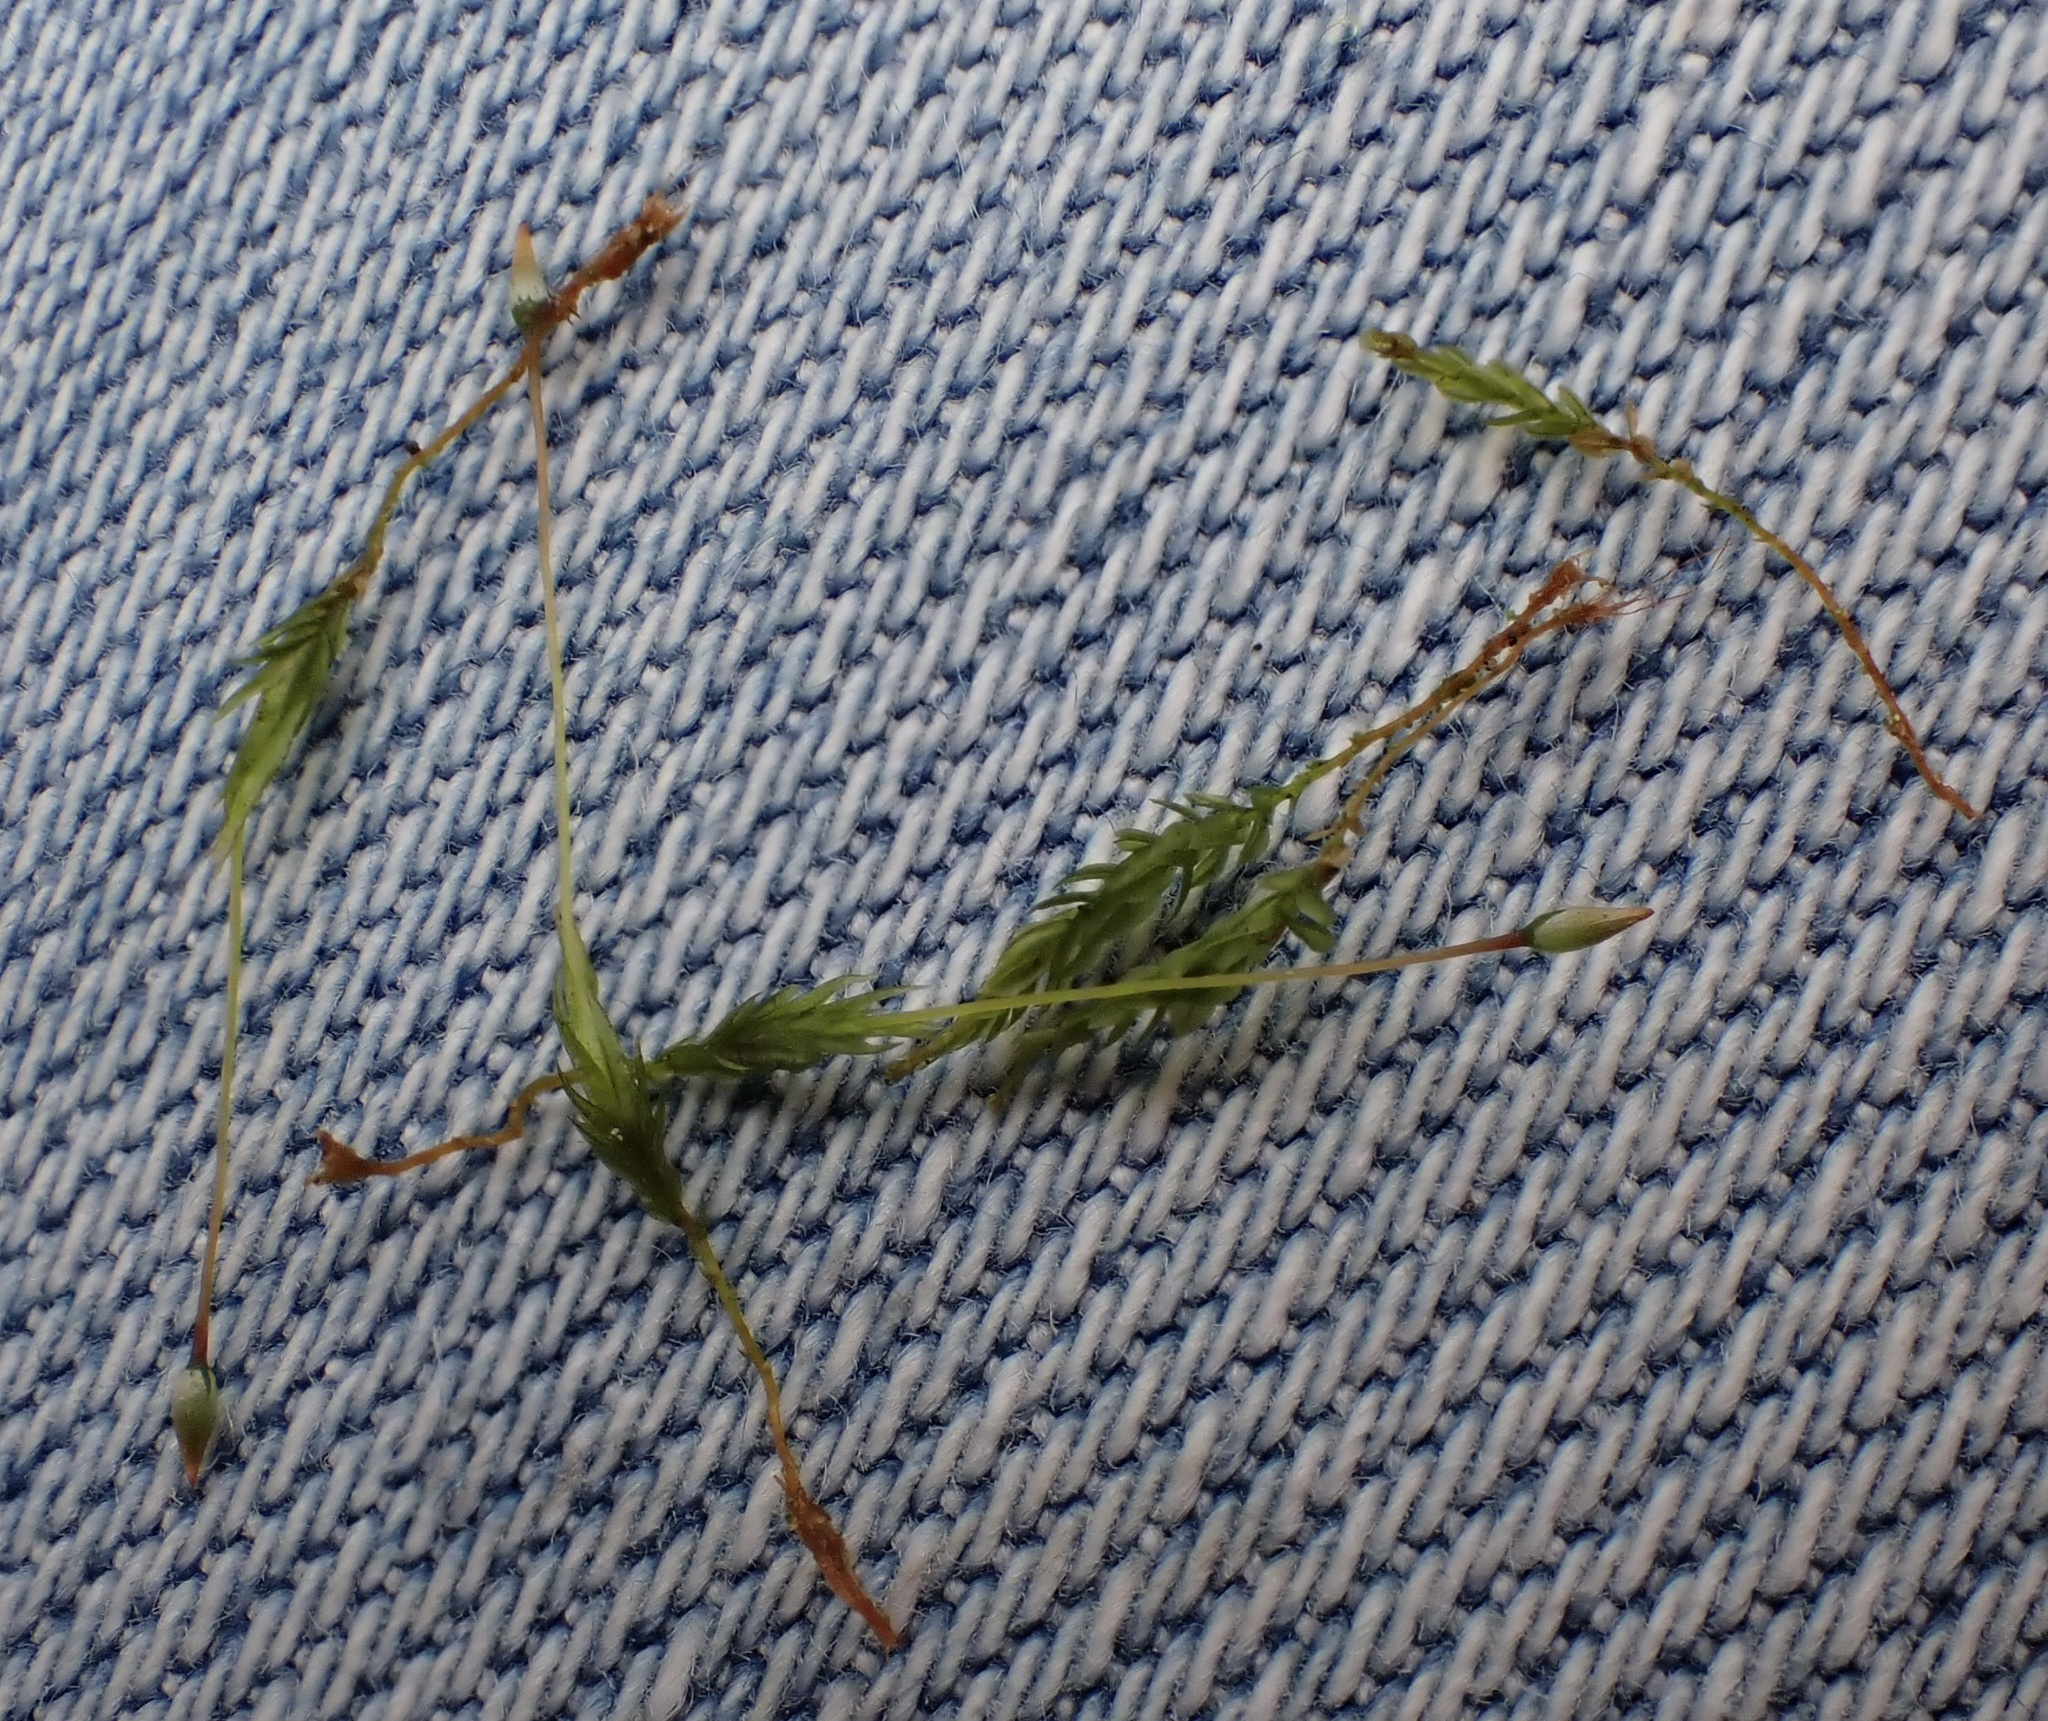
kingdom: Plantae
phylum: Bryophyta
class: Polytrichopsida
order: Tetraphidales
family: Tetraphidaceae
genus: Tetraphis
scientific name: Tetraphis pellucida
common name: Common four-toothed moss
